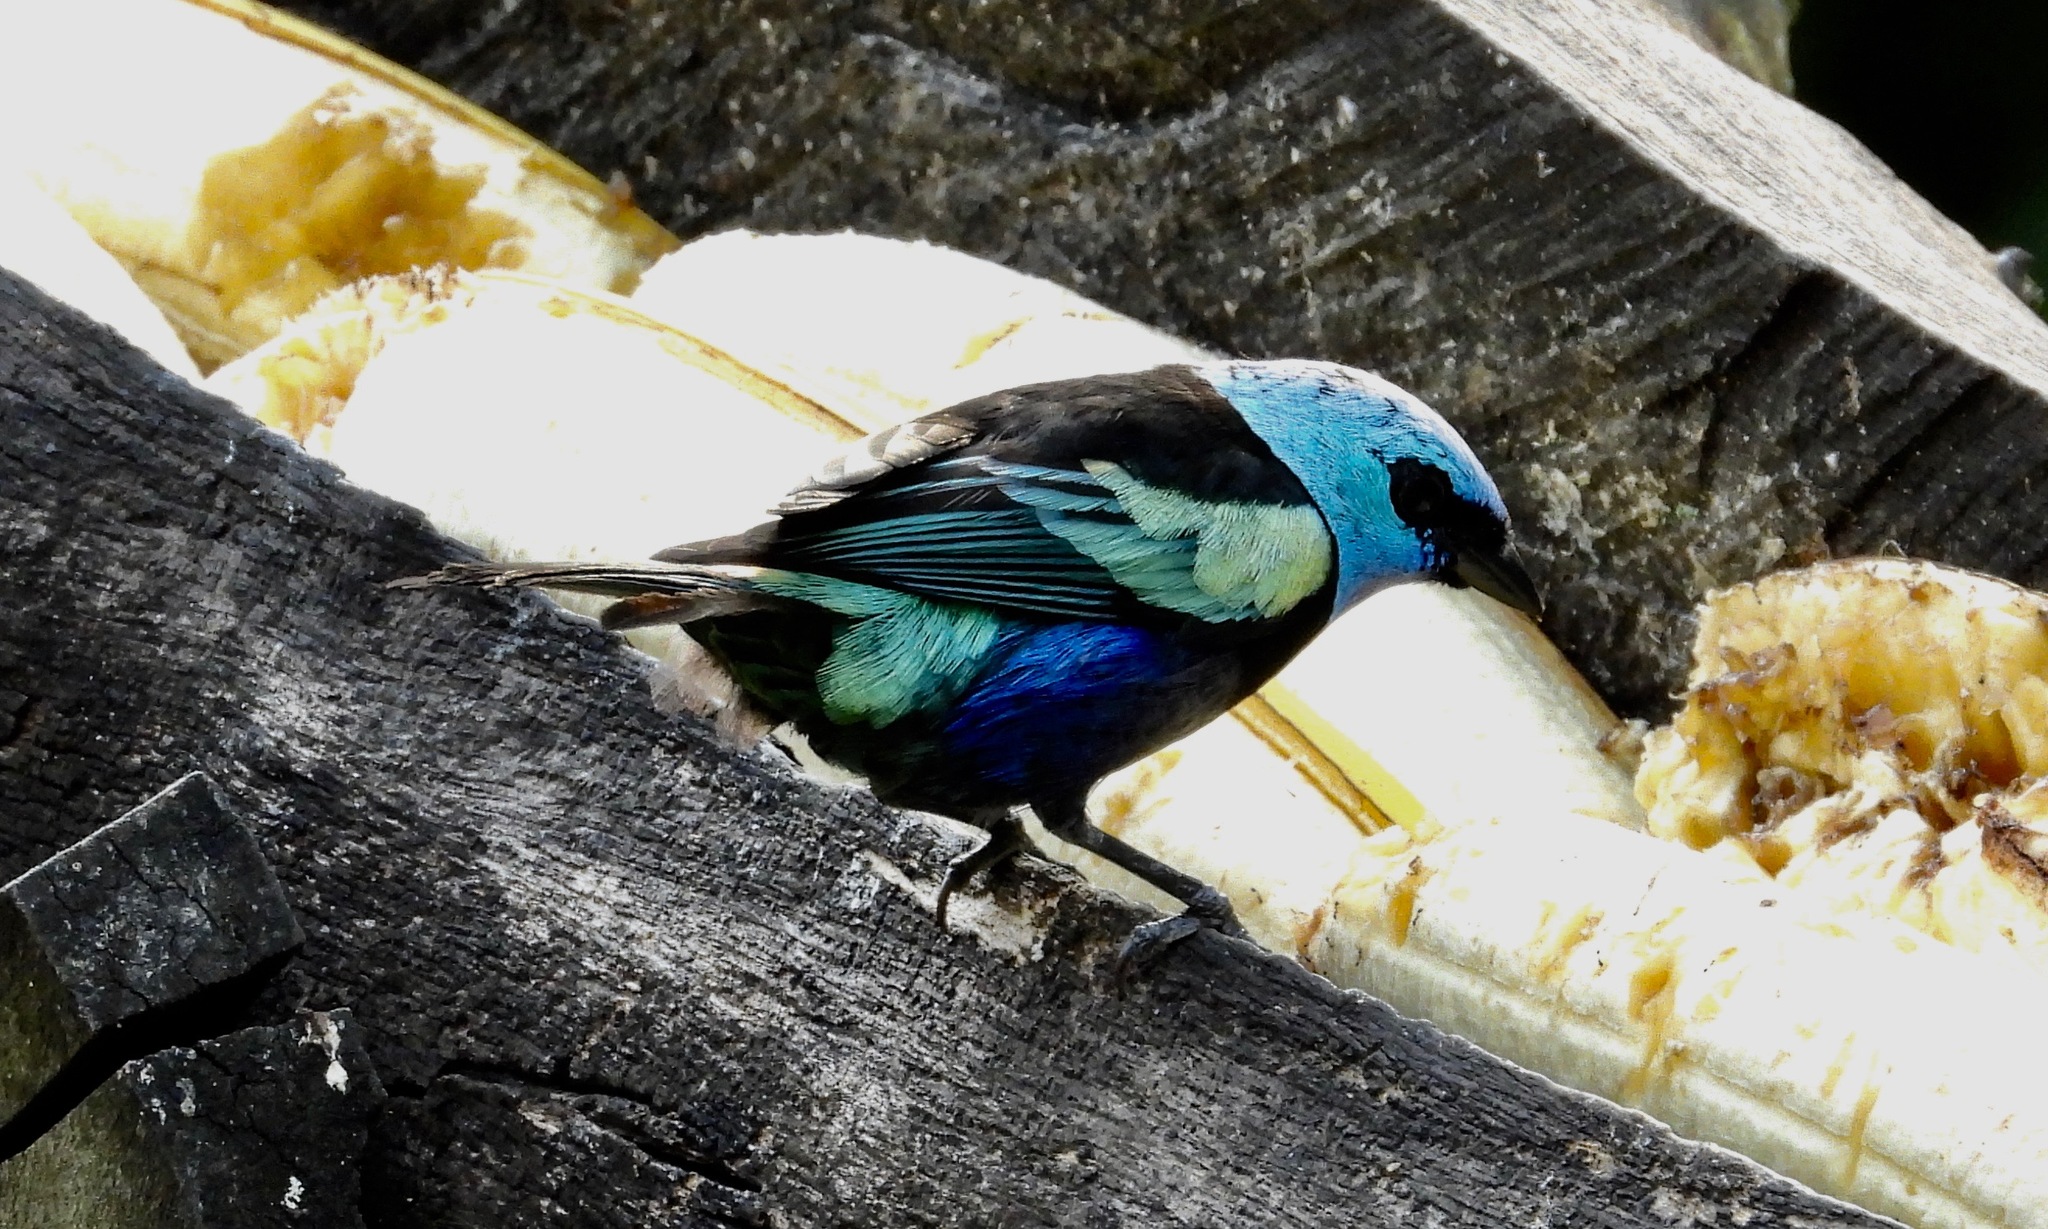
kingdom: Animalia
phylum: Chordata
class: Aves
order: Passeriformes
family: Thraupidae
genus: Stilpnia
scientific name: Stilpnia cyanicollis
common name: Blue-necked tanager
